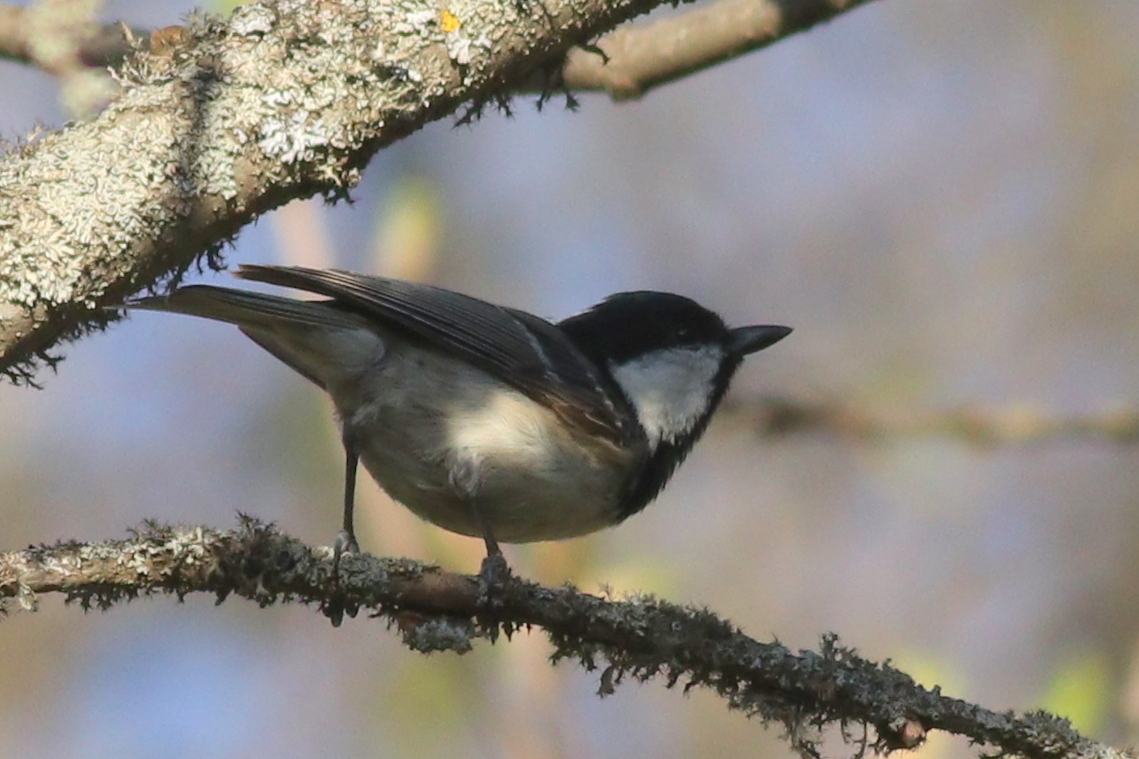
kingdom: Animalia
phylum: Chordata
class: Aves
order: Passeriformes
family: Paridae
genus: Periparus
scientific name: Periparus ater
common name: Coal tit
